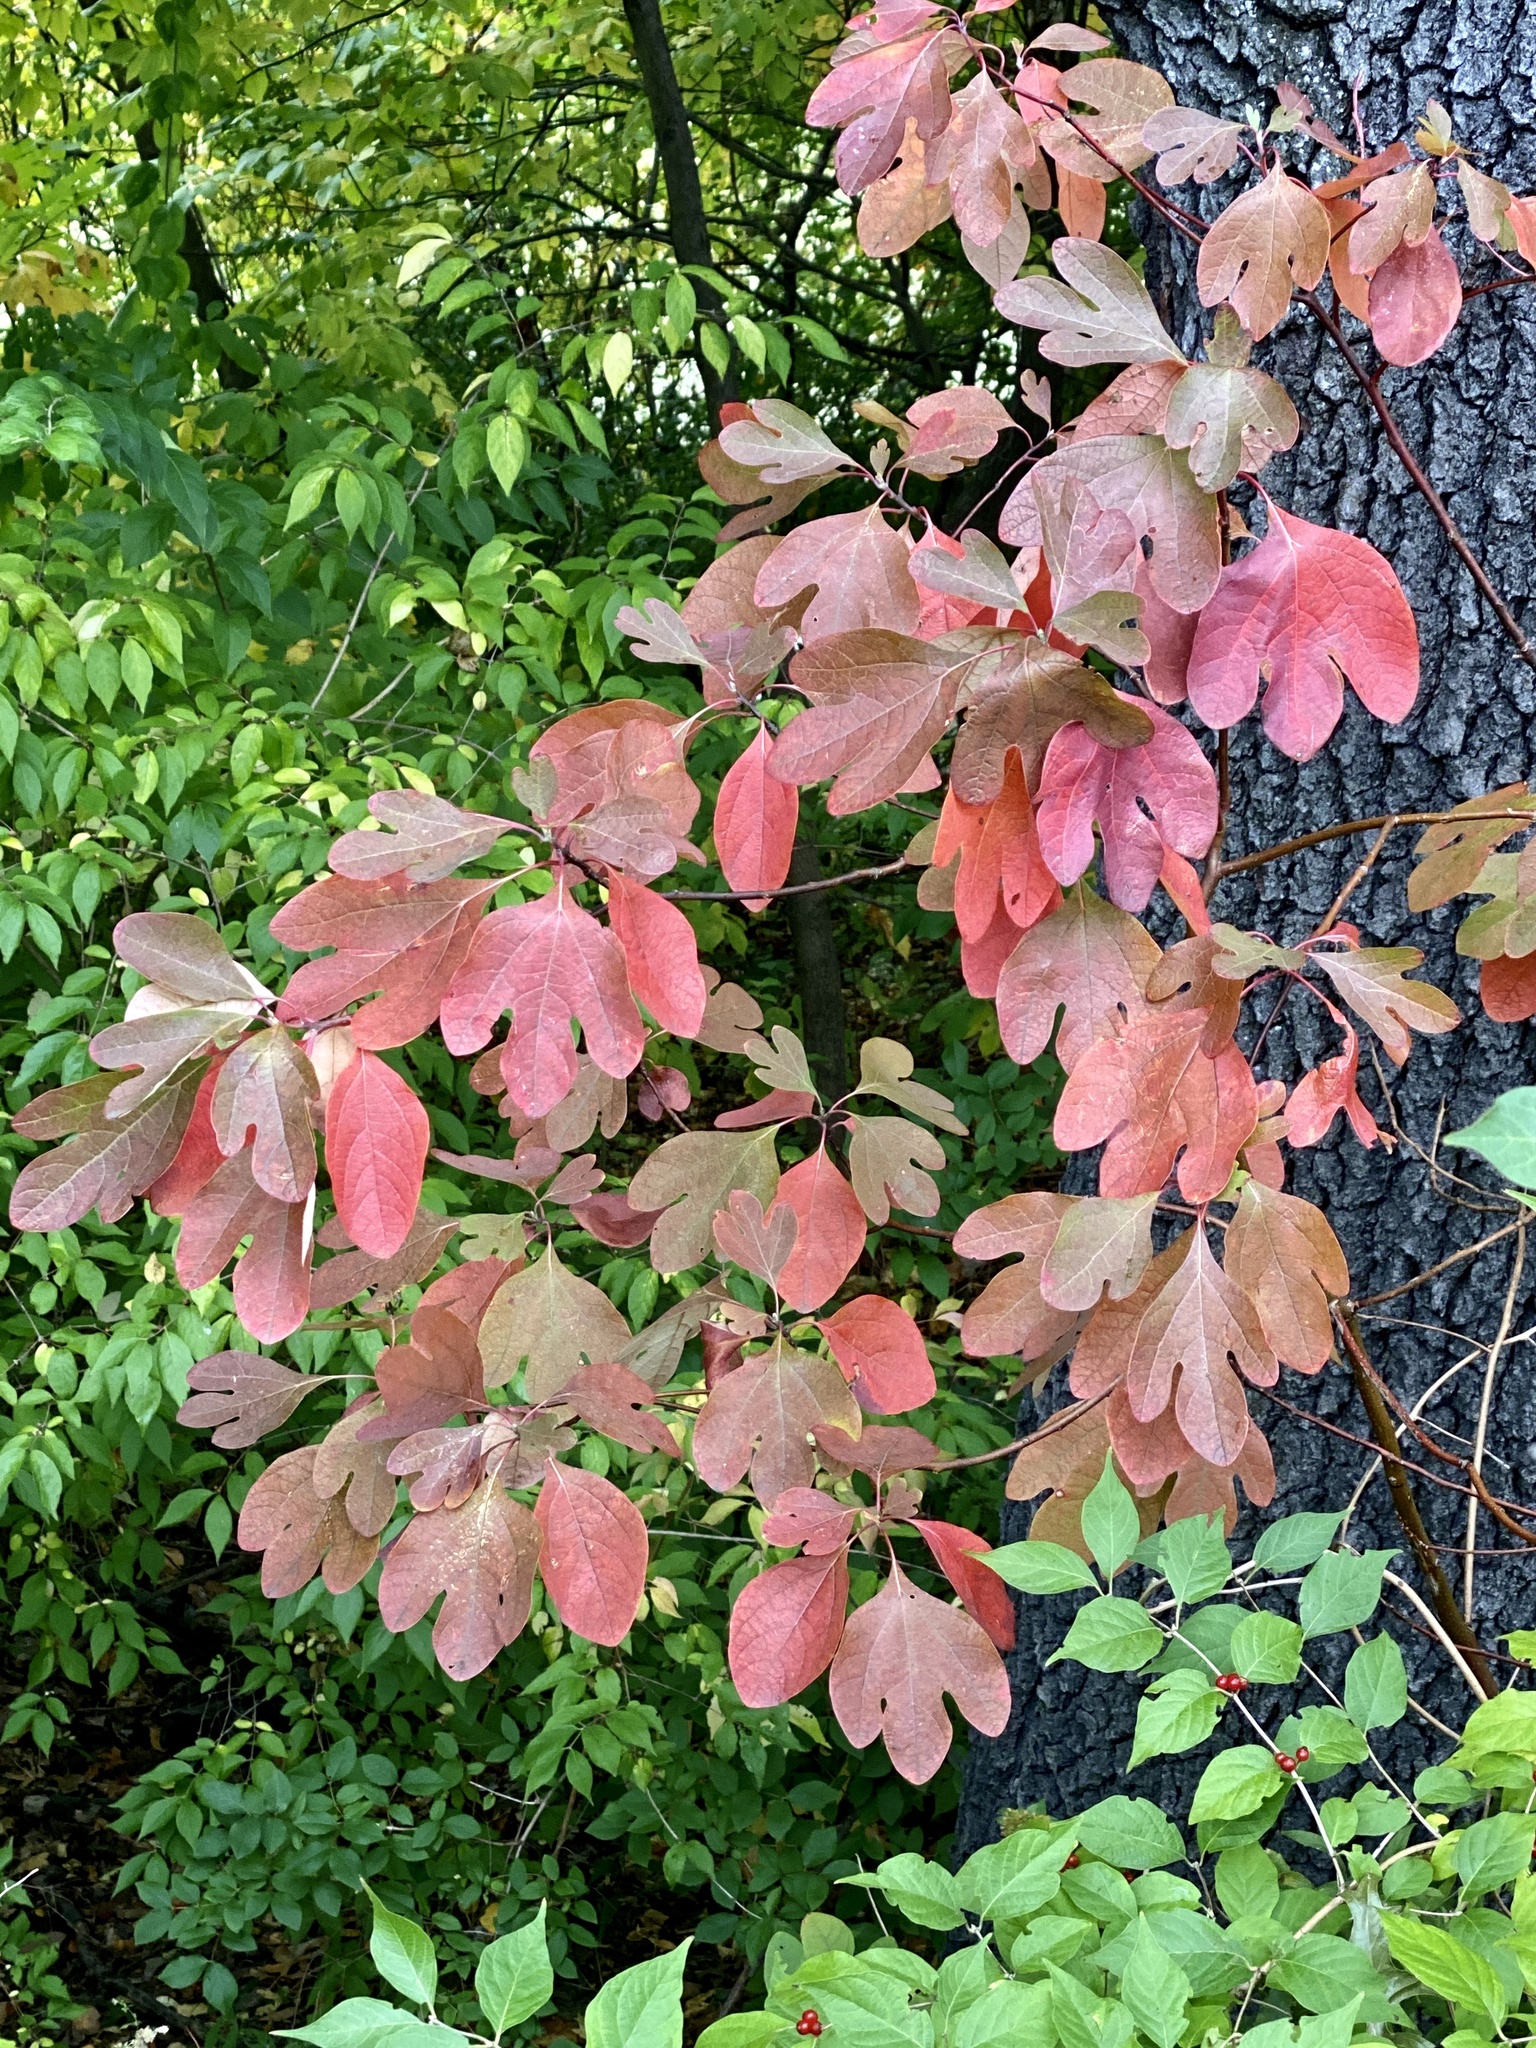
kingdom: Plantae
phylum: Tracheophyta
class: Magnoliopsida
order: Laurales
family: Lauraceae
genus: Sassafras
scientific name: Sassafras albidum
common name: Sassafras
